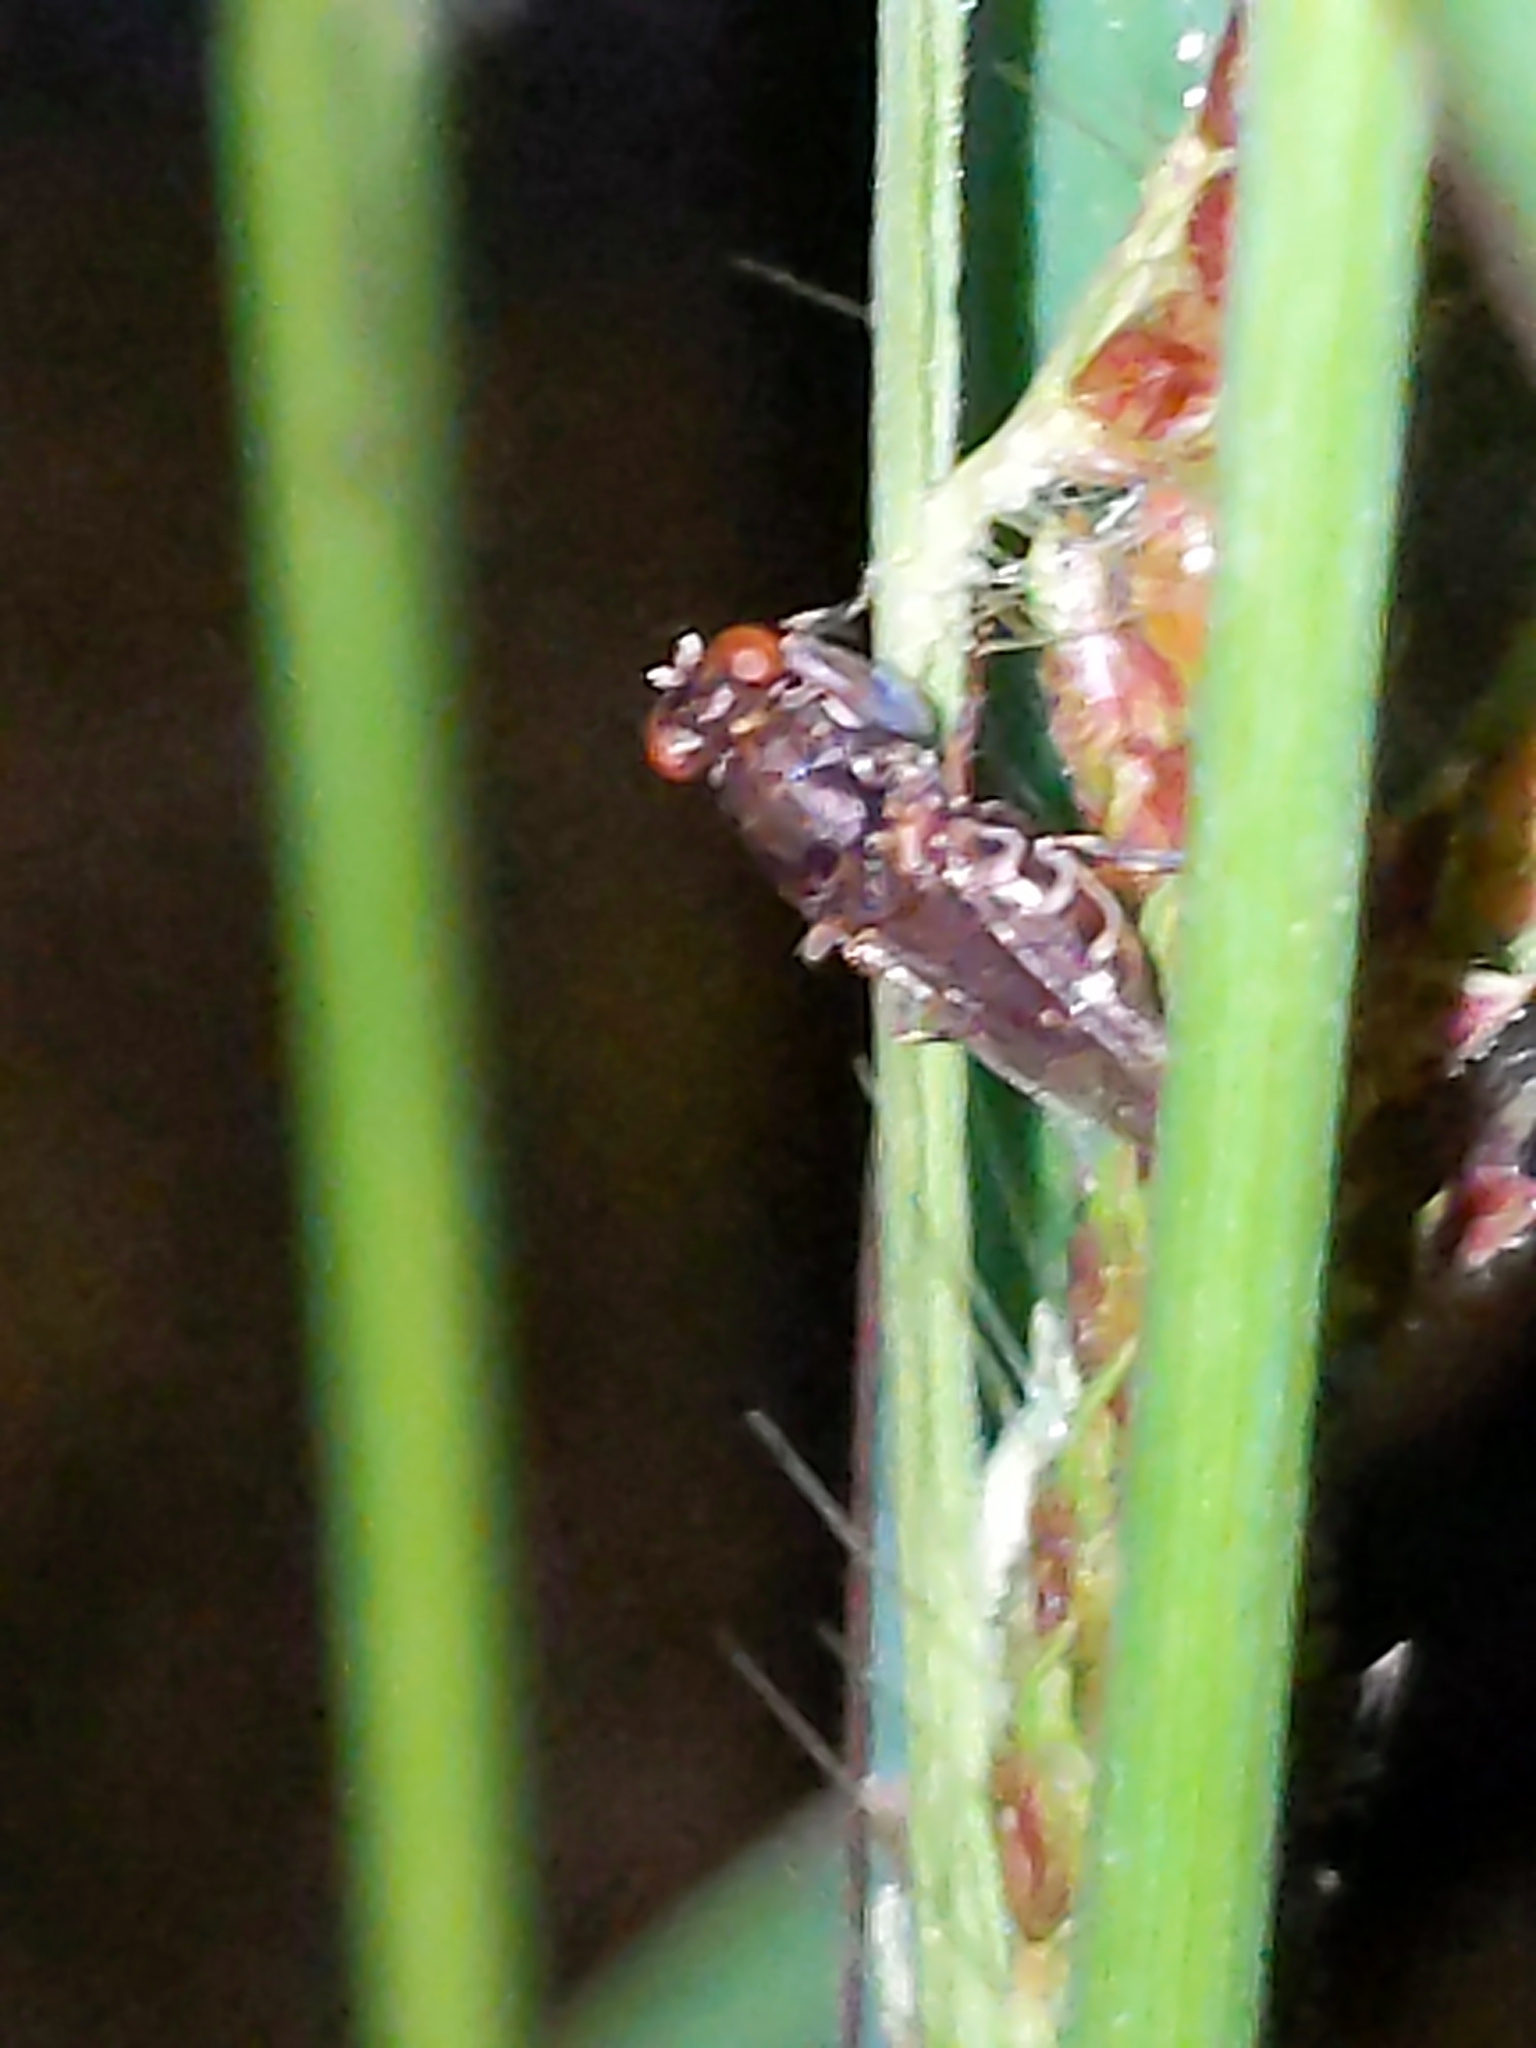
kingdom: Animalia
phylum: Arthropoda
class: Insecta
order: Diptera
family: Ephydridae
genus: Ochthera
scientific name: Ochthera
